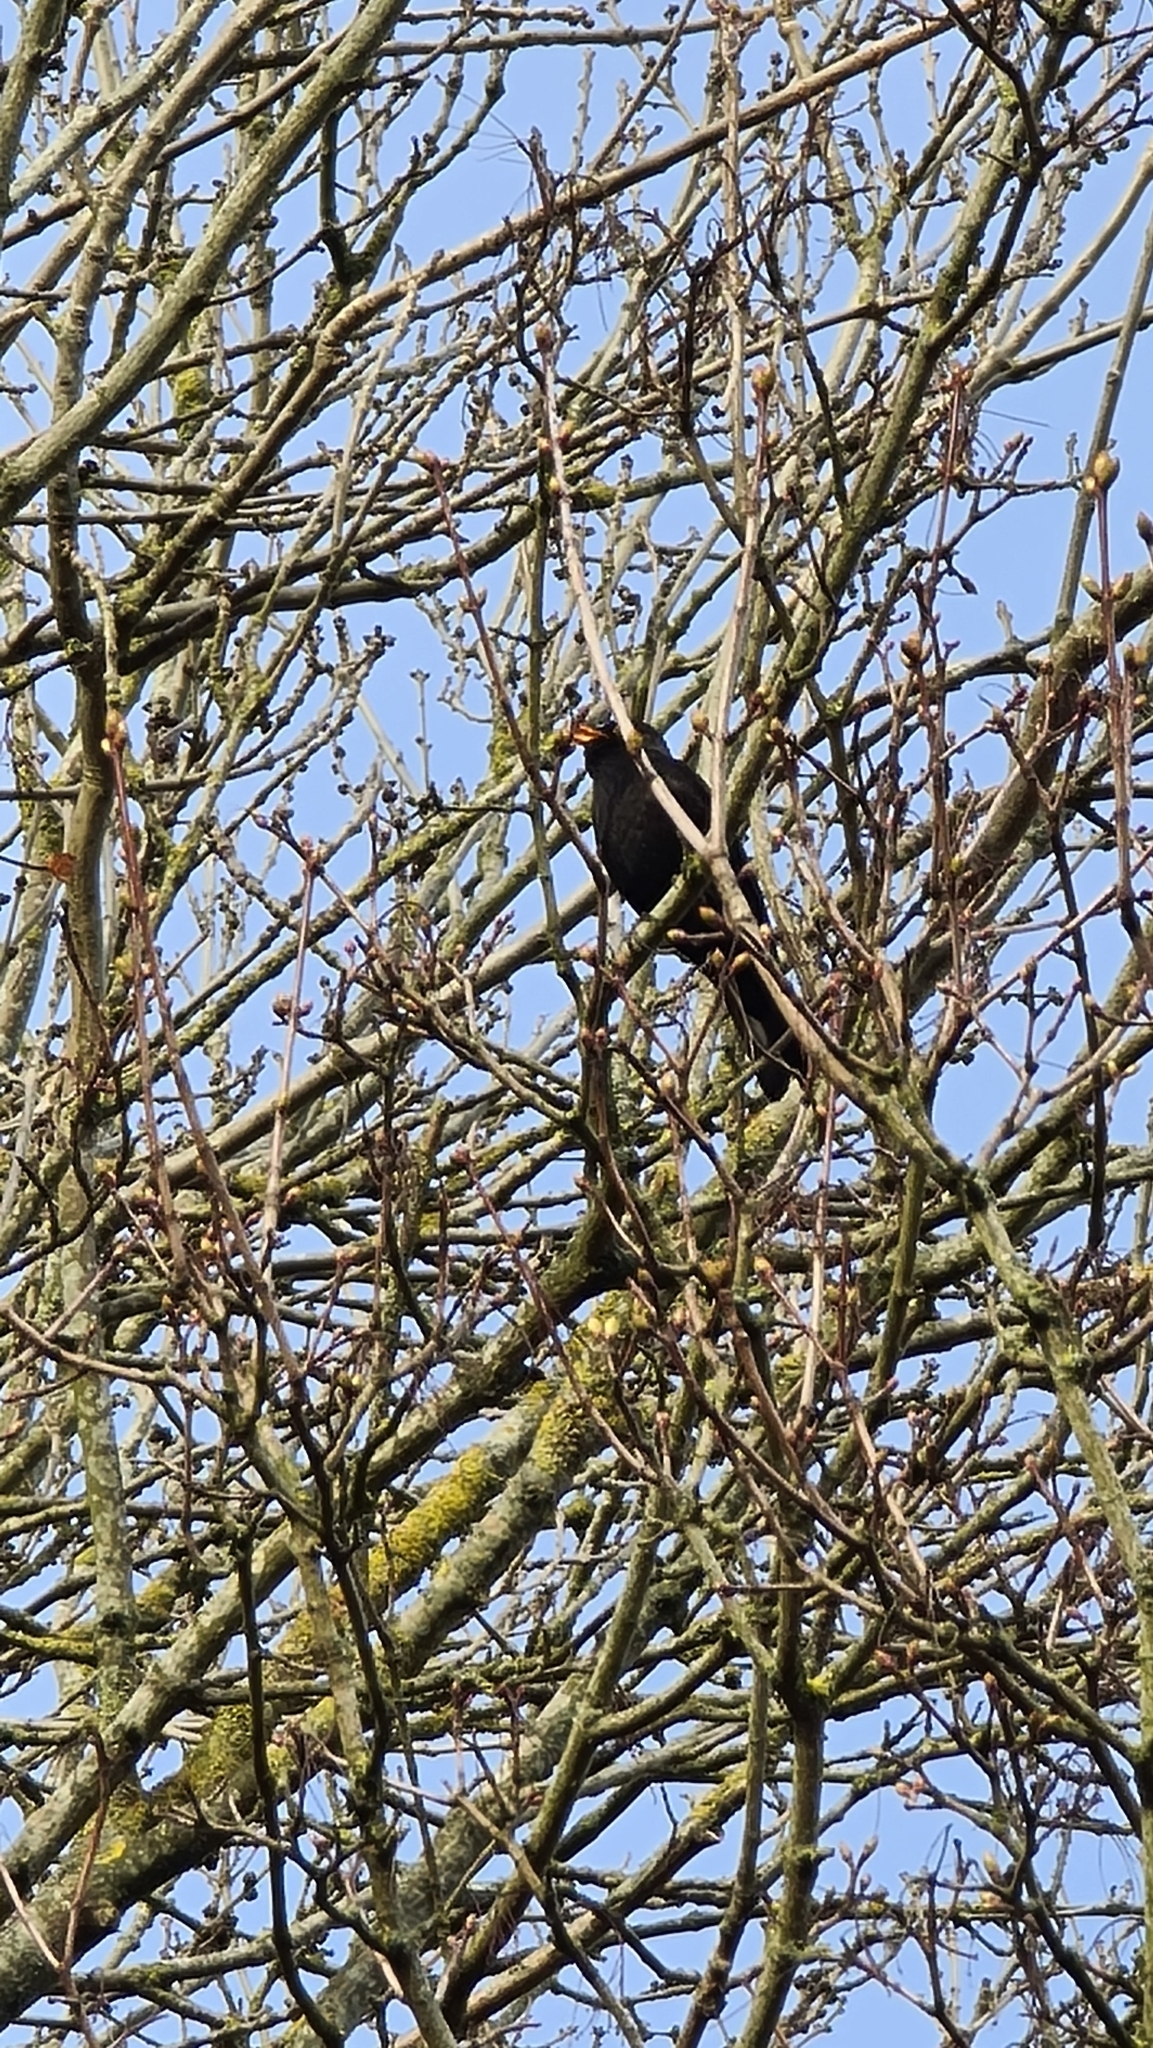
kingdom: Animalia
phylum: Chordata
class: Aves
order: Passeriformes
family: Turdidae
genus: Turdus
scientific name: Turdus merula
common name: Common blackbird
